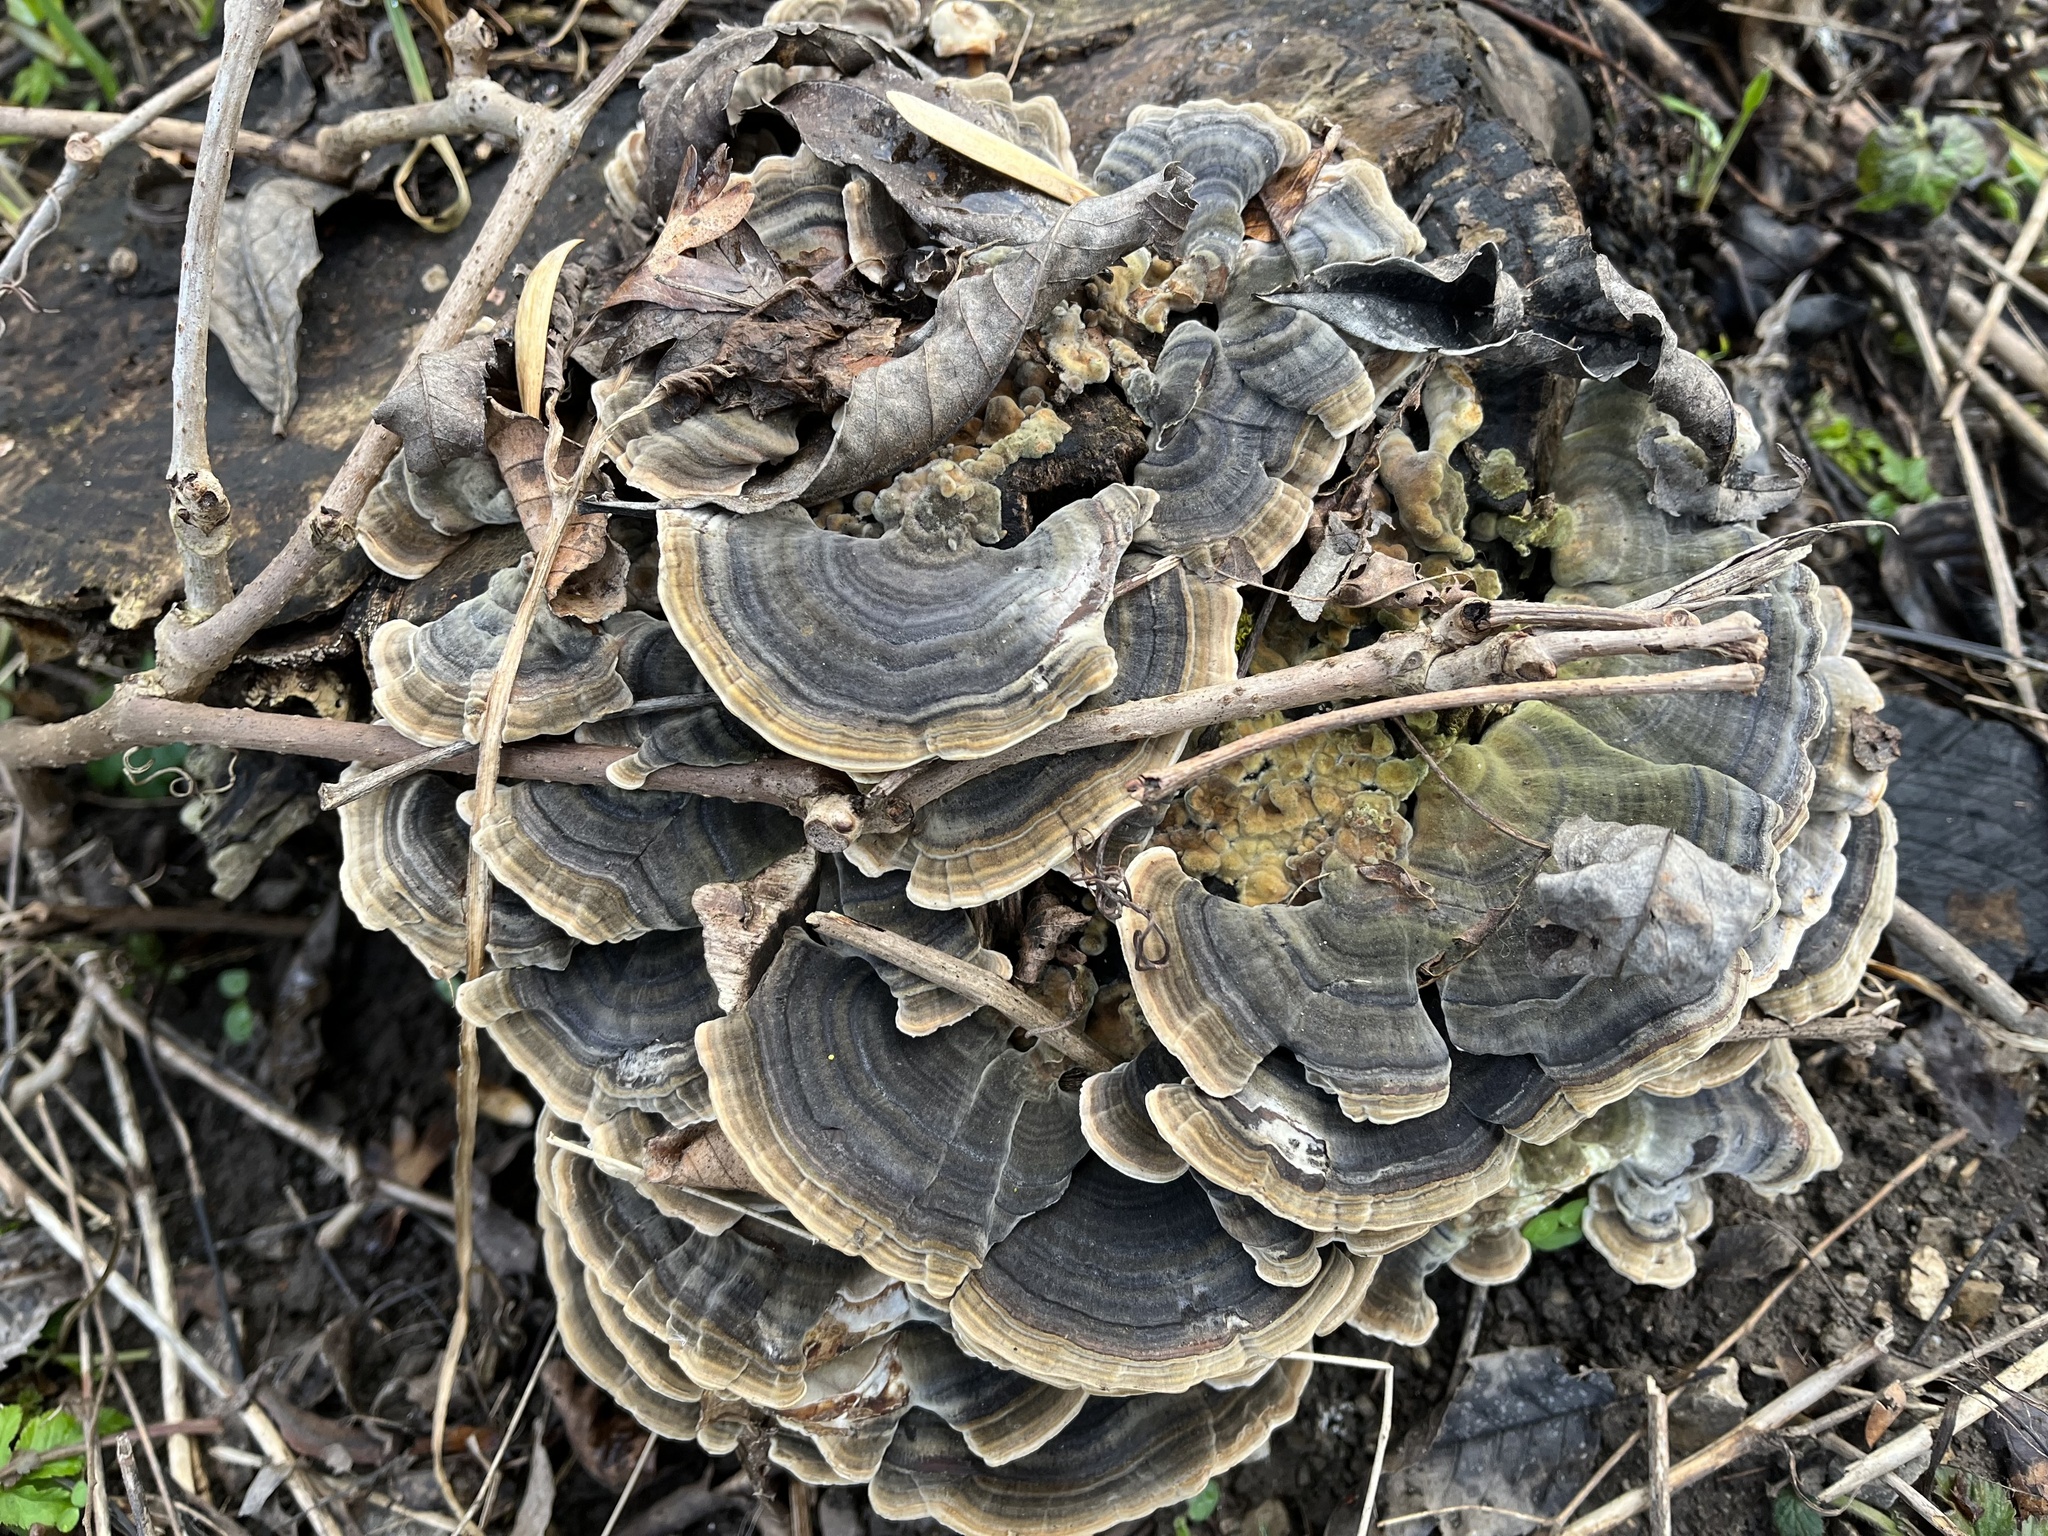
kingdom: Fungi
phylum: Basidiomycota
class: Agaricomycetes
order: Polyporales
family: Polyporaceae
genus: Trametes
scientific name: Trametes versicolor
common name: Turkeytail
